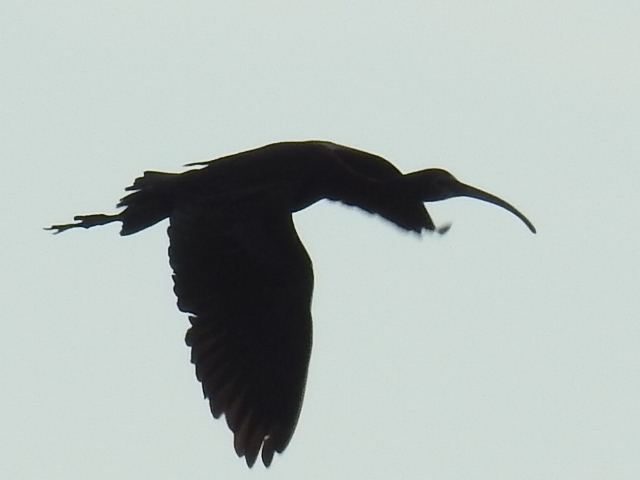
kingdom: Animalia
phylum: Chordata
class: Aves
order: Pelecaniformes
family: Threskiornithidae
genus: Plegadis
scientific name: Plegadis chihi
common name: White-faced ibis
